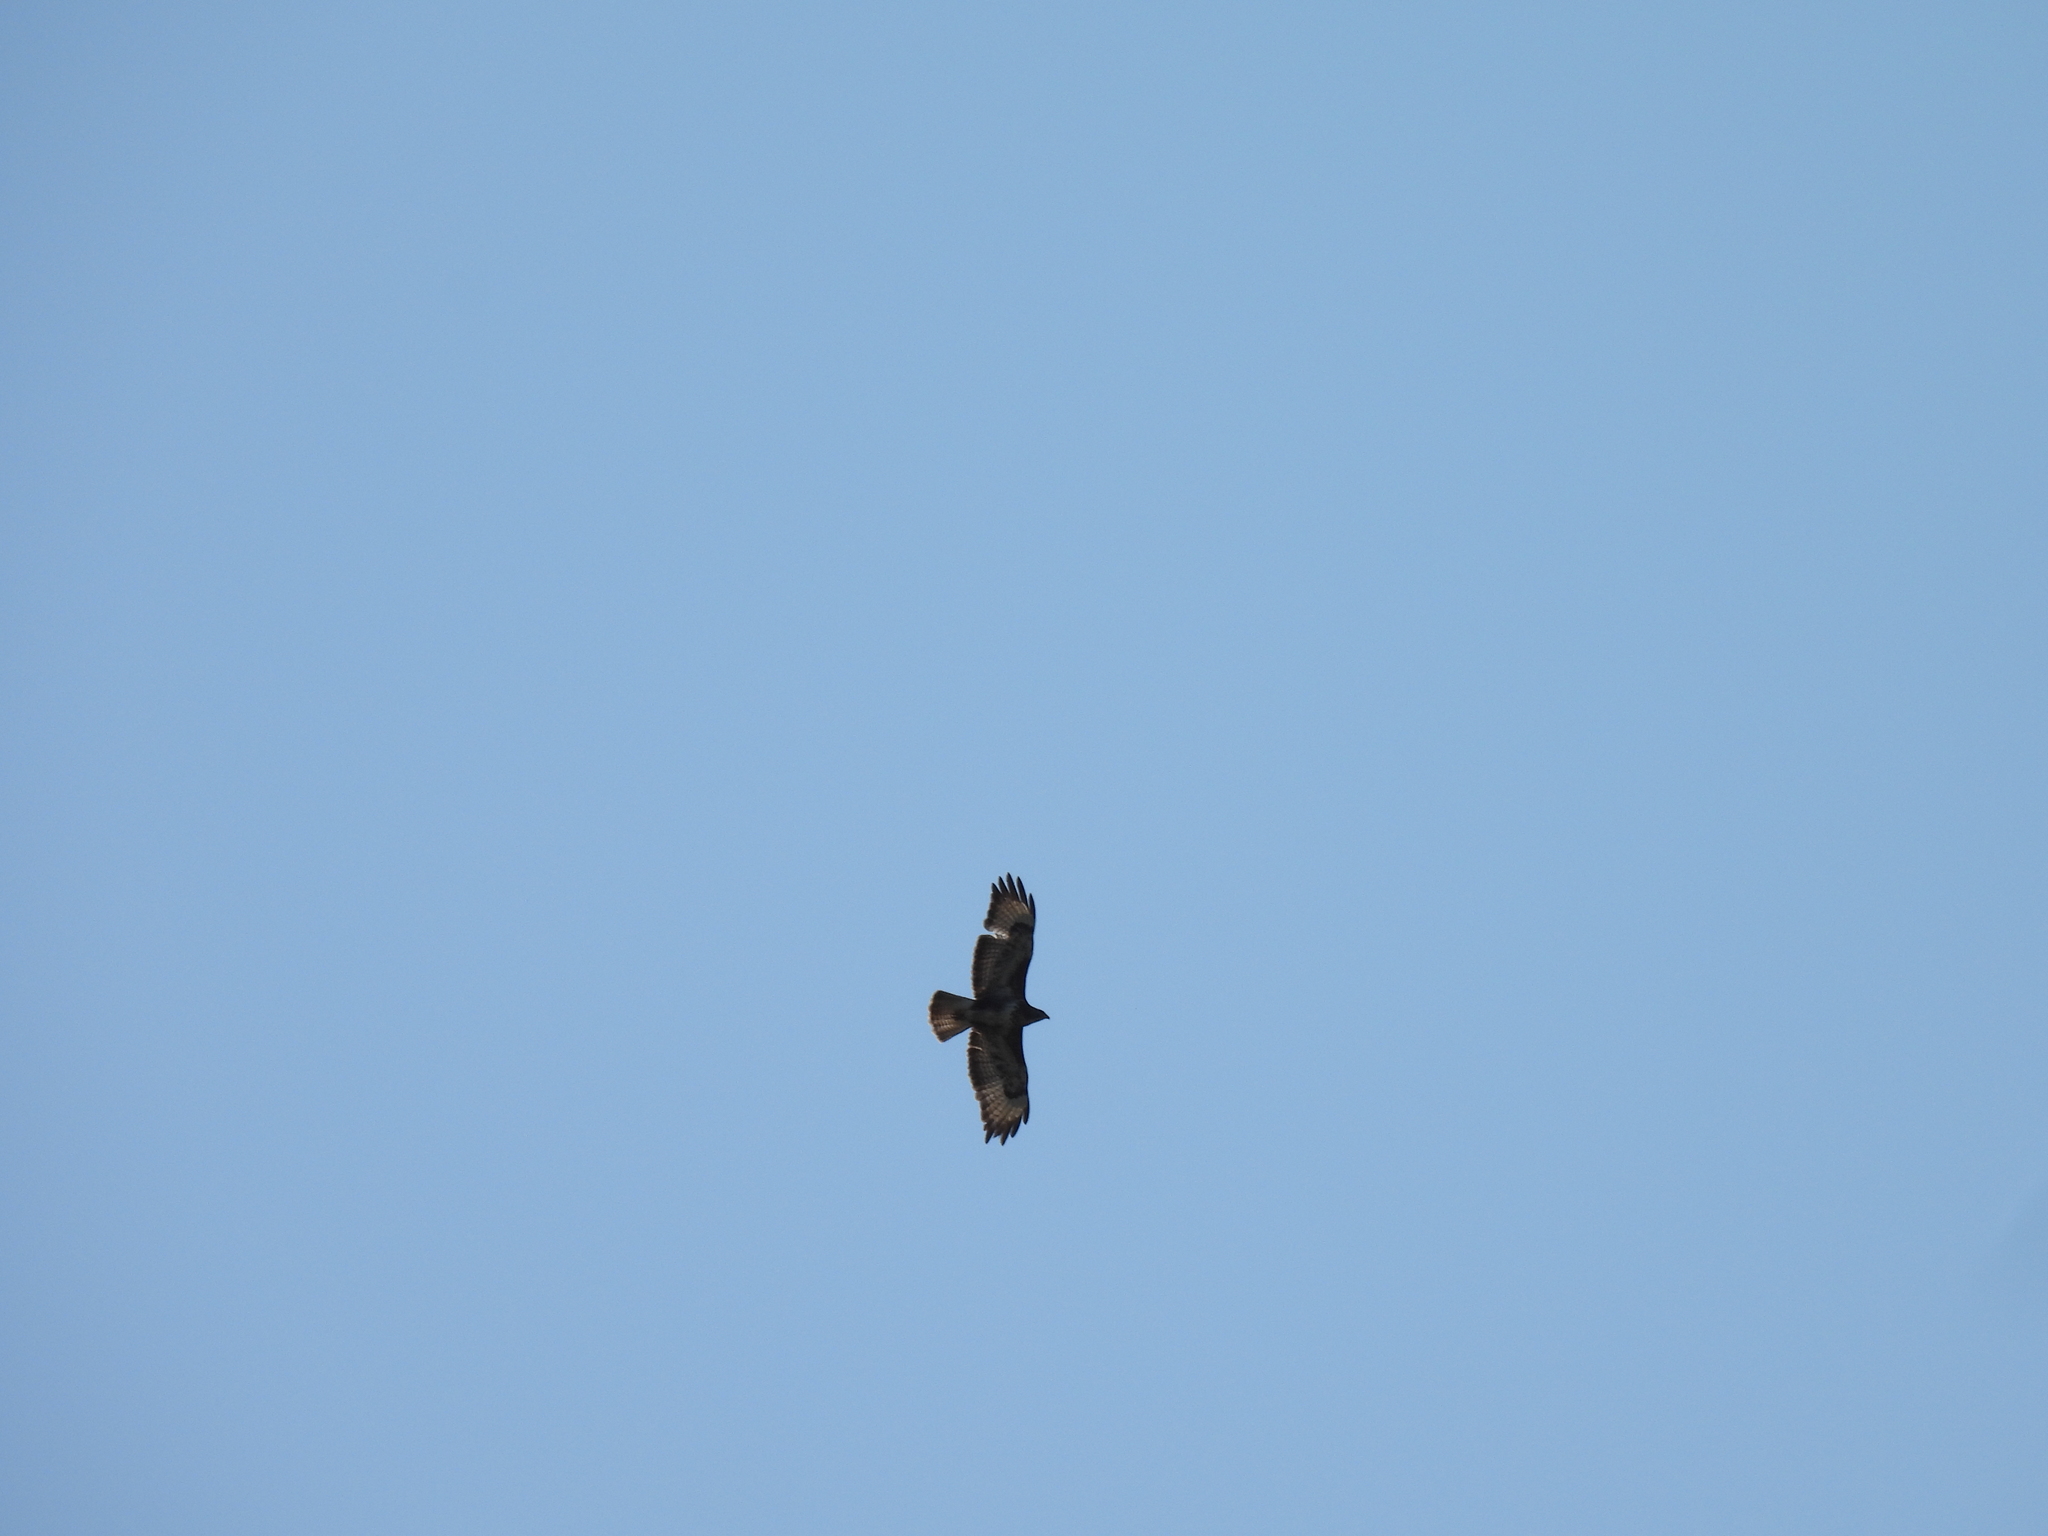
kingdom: Animalia
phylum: Chordata
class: Aves
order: Accipitriformes
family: Accipitridae
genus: Buteo
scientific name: Buteo buteo
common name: Common buzzard
